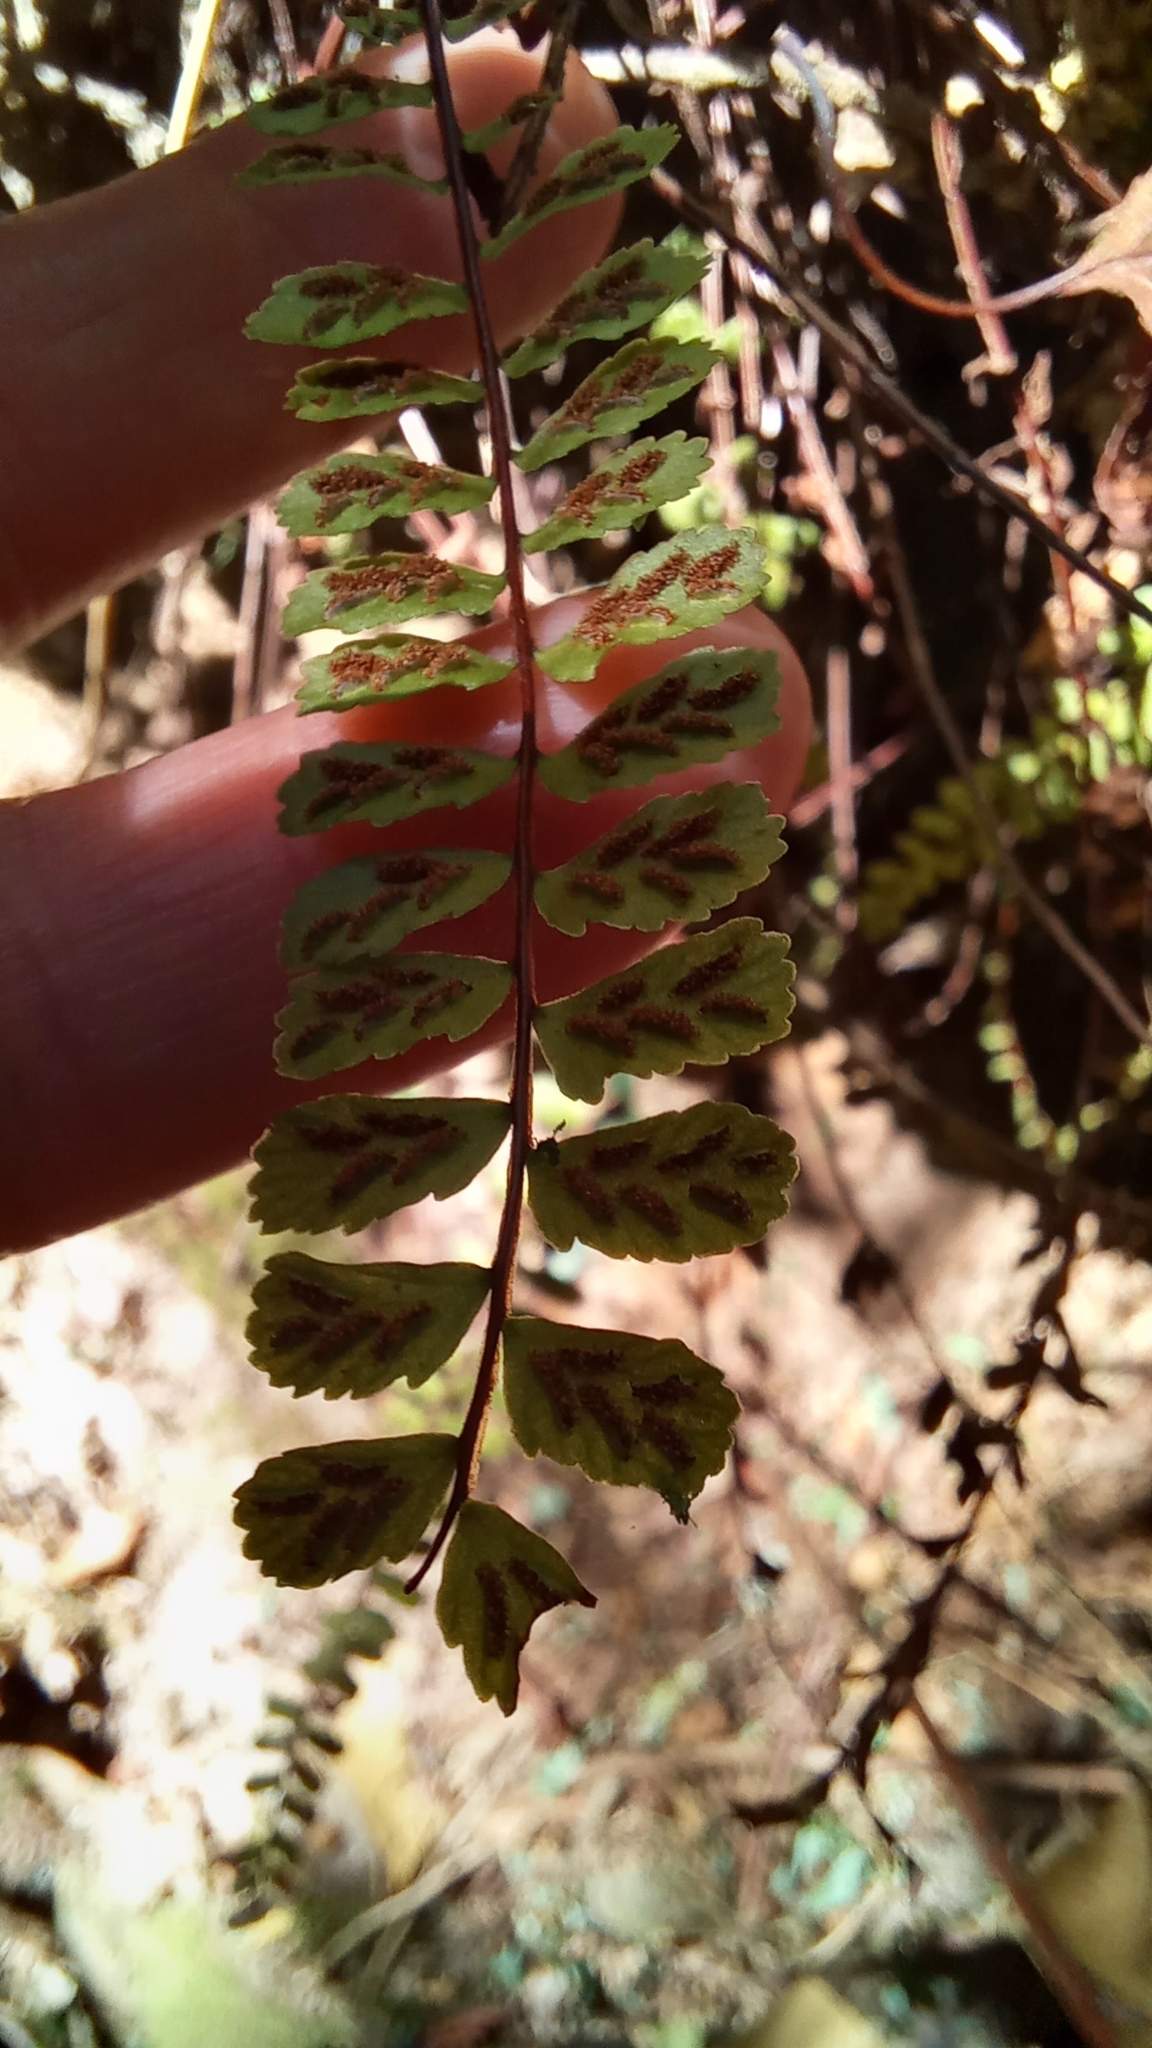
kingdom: Plantae
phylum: Tracheophyta
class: Polypodiopsida
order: Polypodiales
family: Aspleniaceae
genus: Asplenium
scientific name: Asplenium trichomanes
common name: Maidenhair spleenwort
